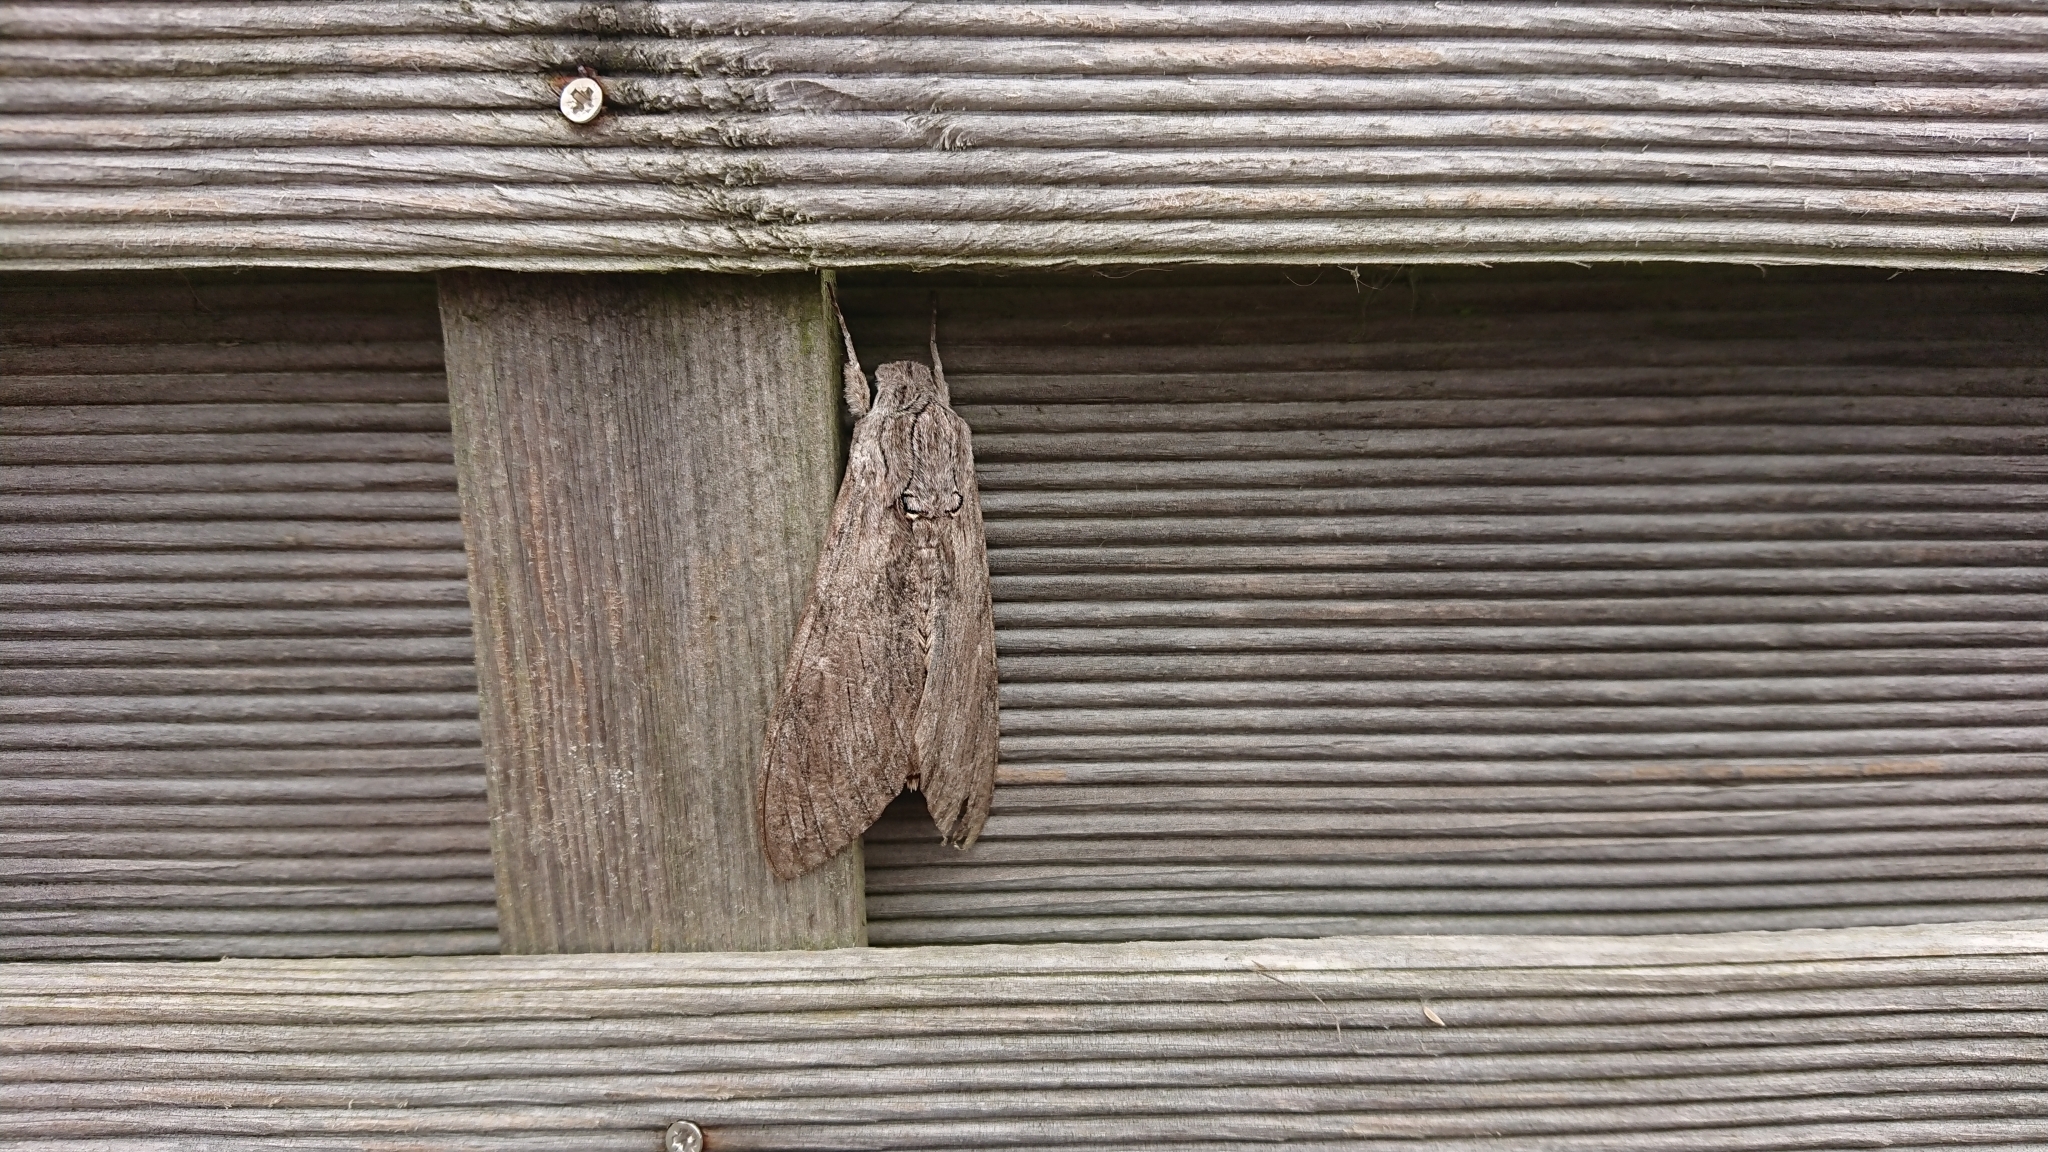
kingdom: Animalia
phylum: Arthropoda
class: Insecta
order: Lepidoptera
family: Sphingidae
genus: Agrius
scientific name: Agrius convolvuli
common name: Convolvulus hawkmoth
